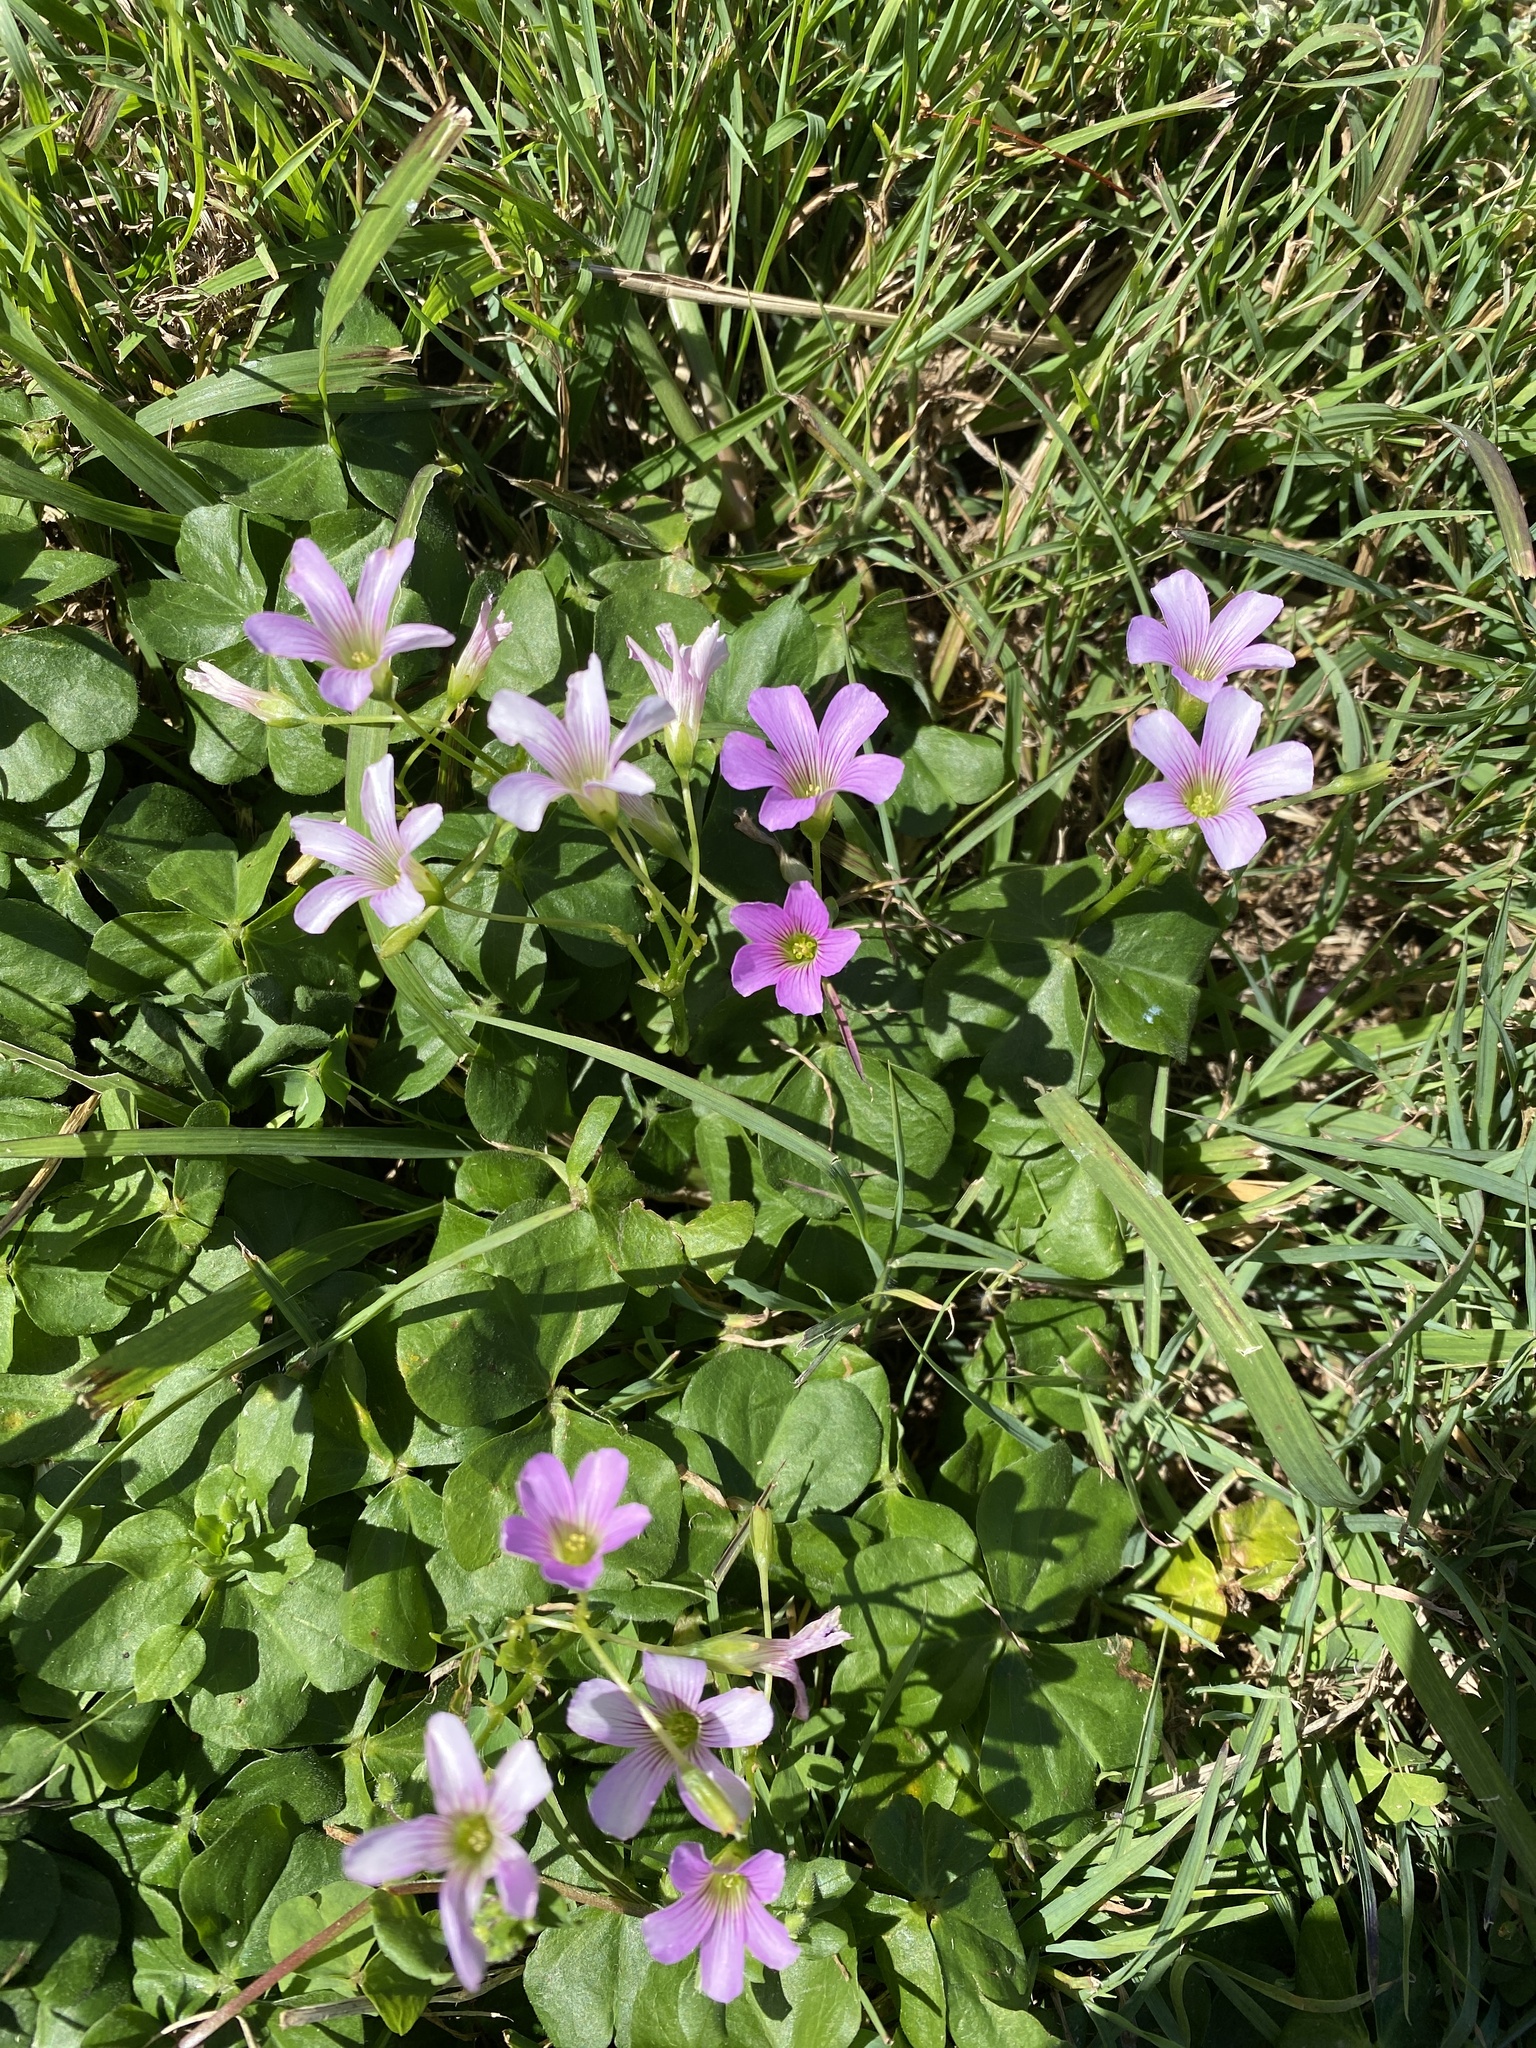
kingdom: Plantae
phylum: Tracheophyta
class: Magnoliopsida
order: Oxalidales
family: Oxalidaceae
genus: Oxalis
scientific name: Oxalis debilis
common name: Large-flowered pink-sorrel
